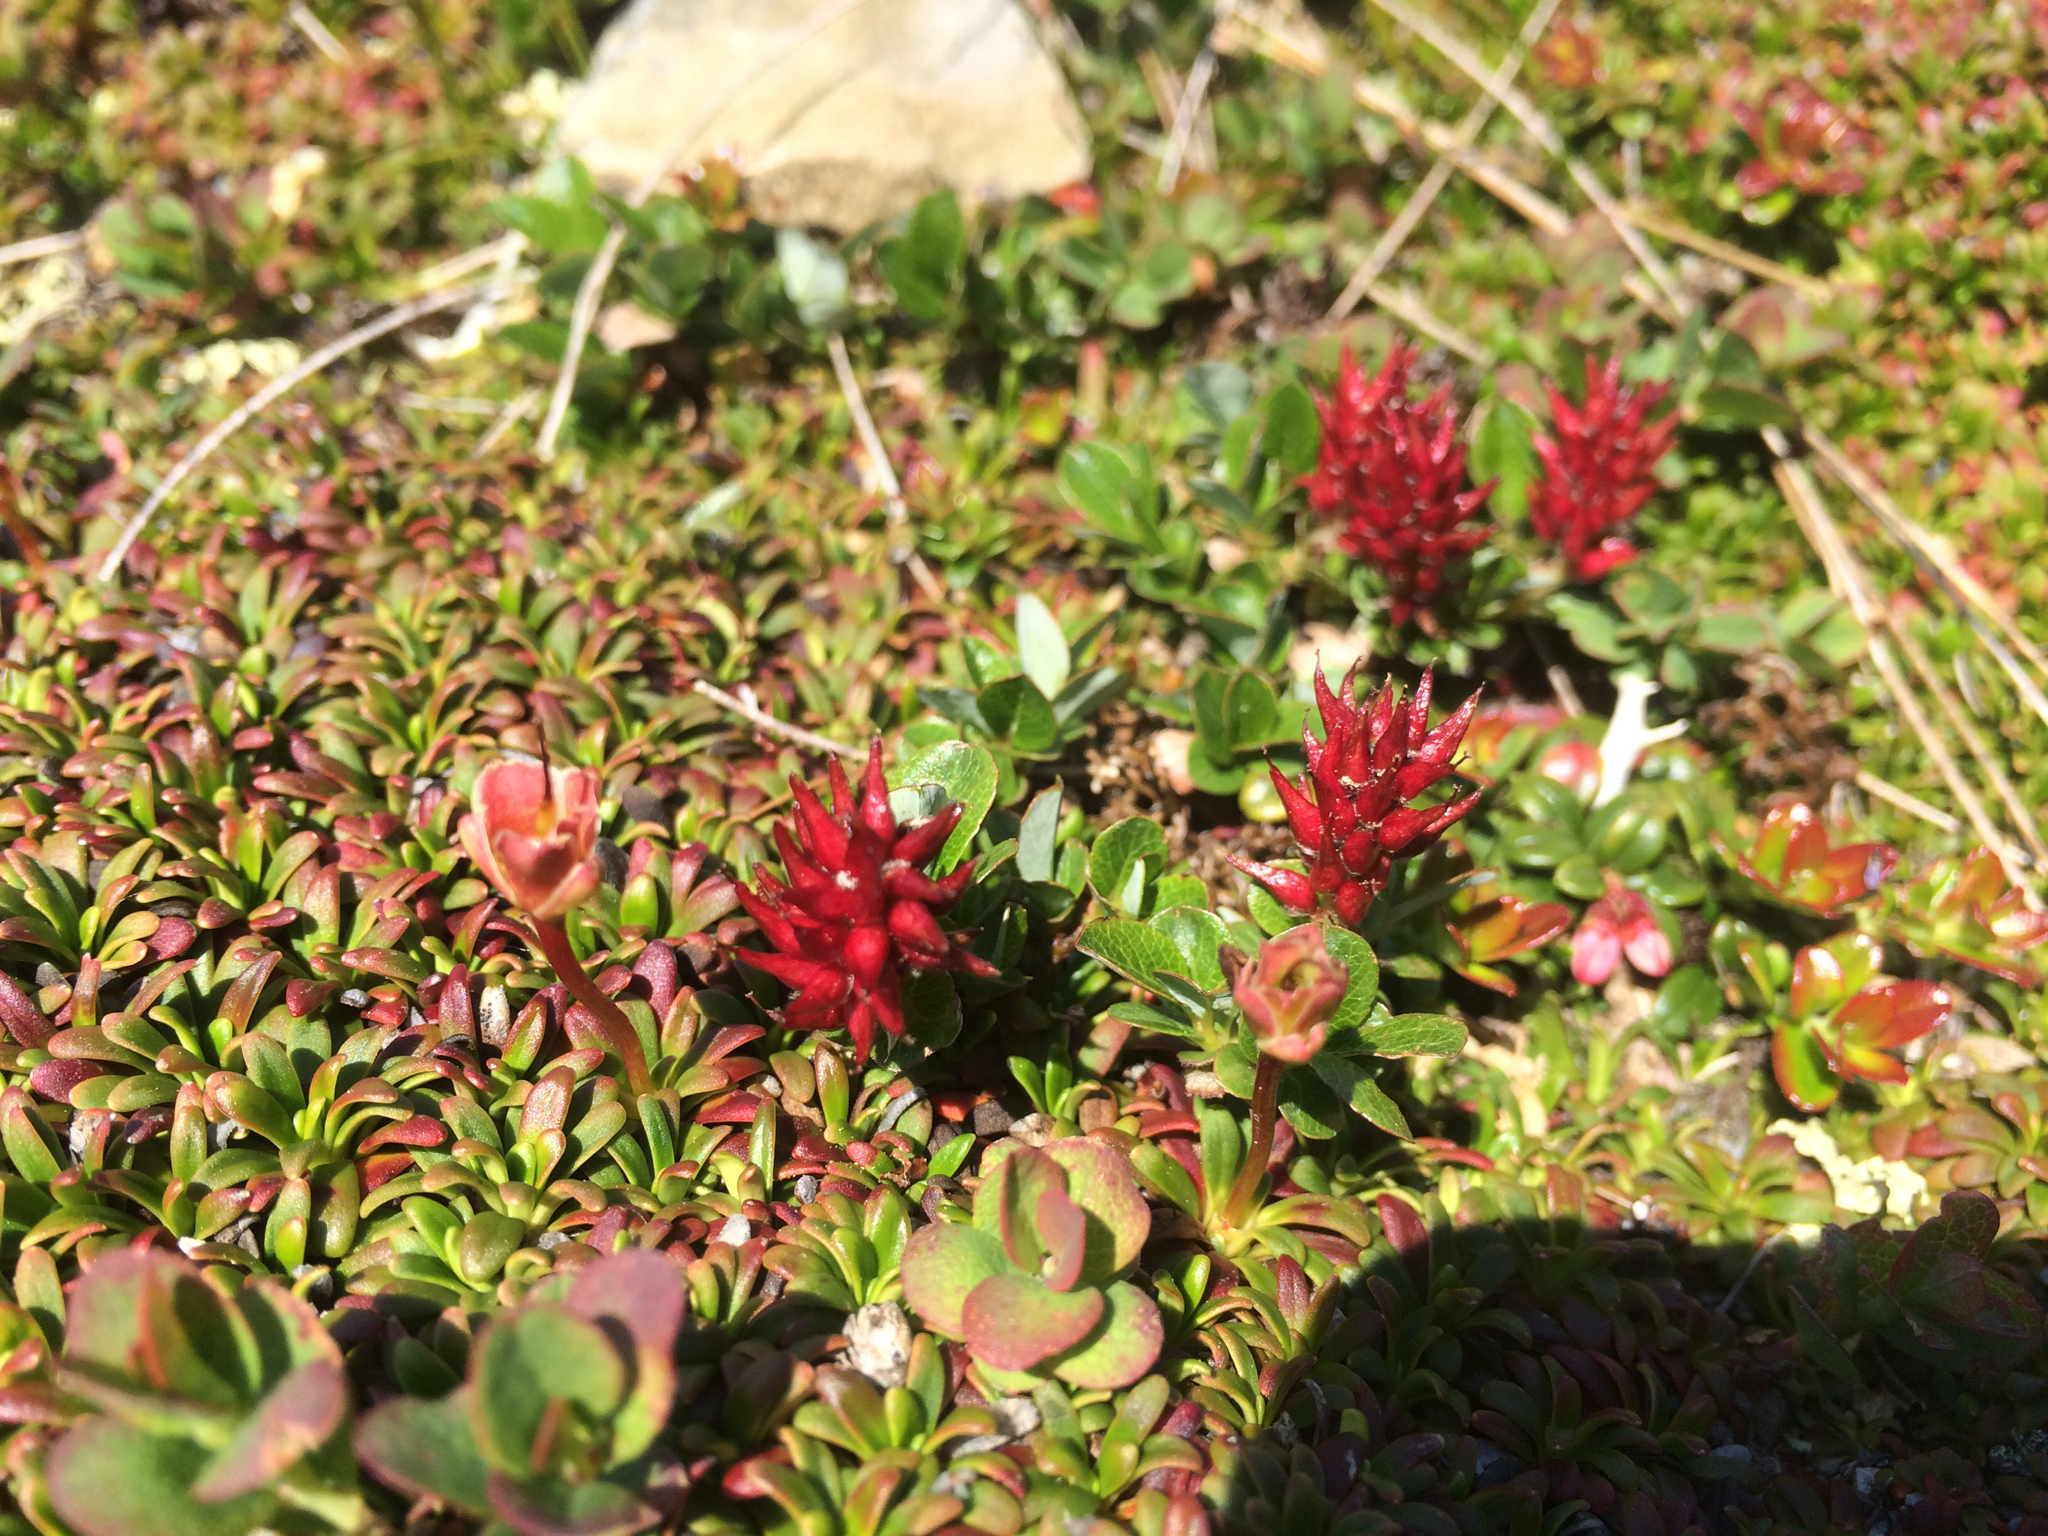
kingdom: Plantae
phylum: Tracheophyta
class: Magnoliopsida
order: Malpighiales
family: Salicaceae
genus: Salix
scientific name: Salix uva-ursi
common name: Bearberry willow
